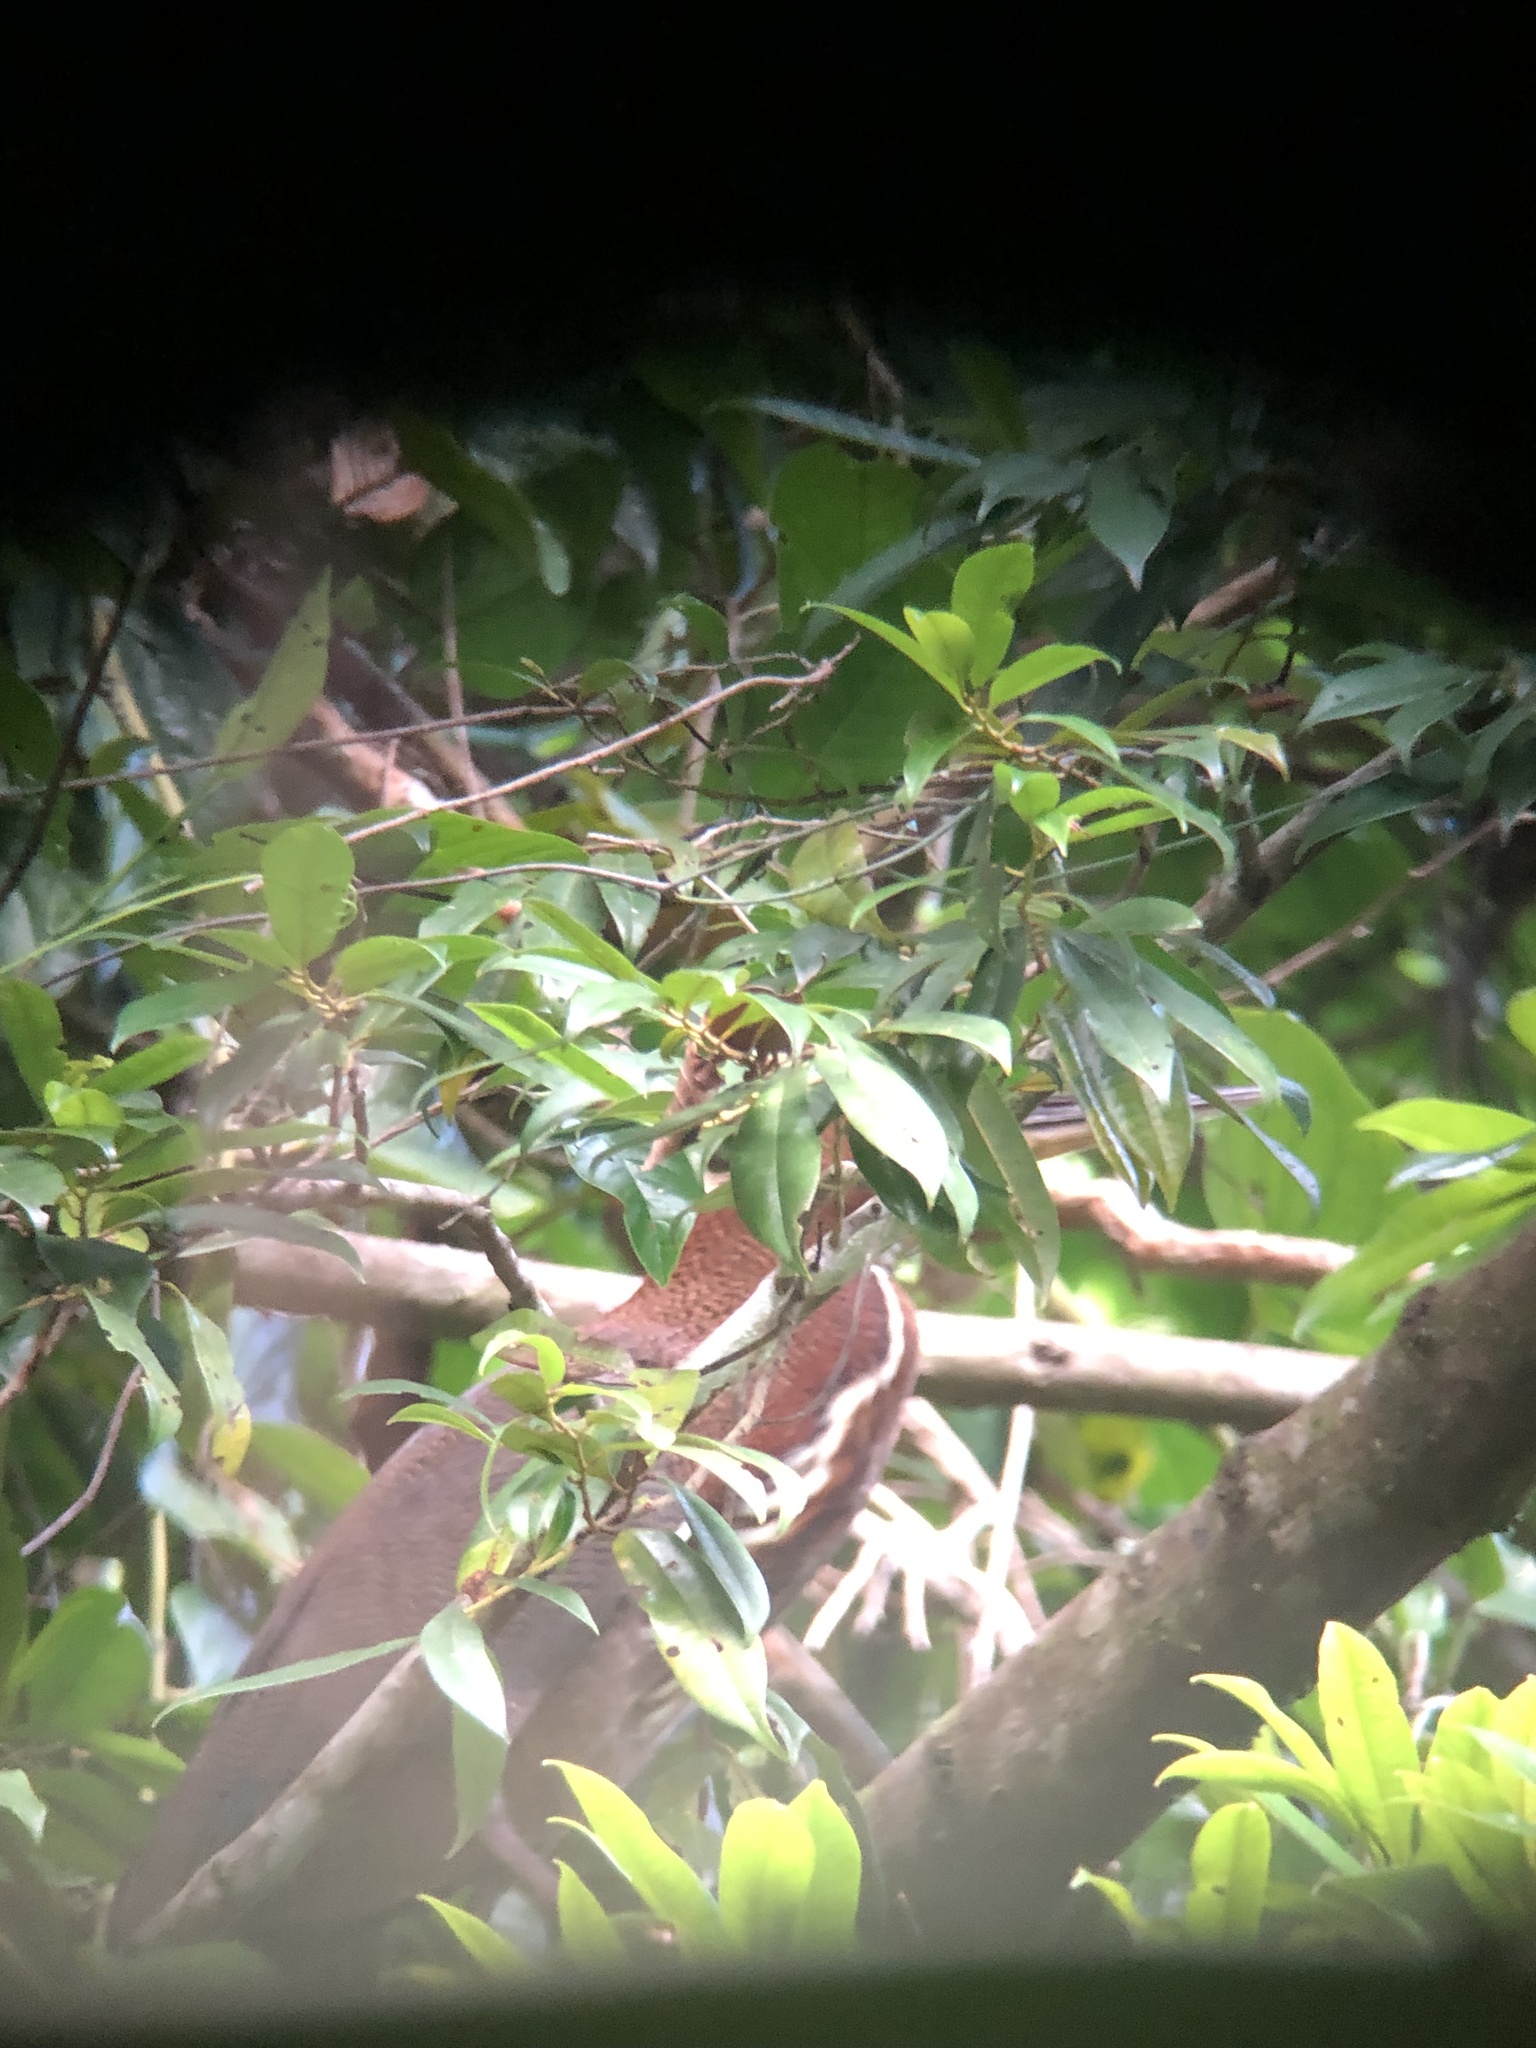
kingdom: Animalia
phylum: Chordata
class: Aves
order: Pelecaniformes
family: Ardeidae
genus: Tigrisoma
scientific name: Tigrisoma lineatum
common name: Rufescent tiger-heron
